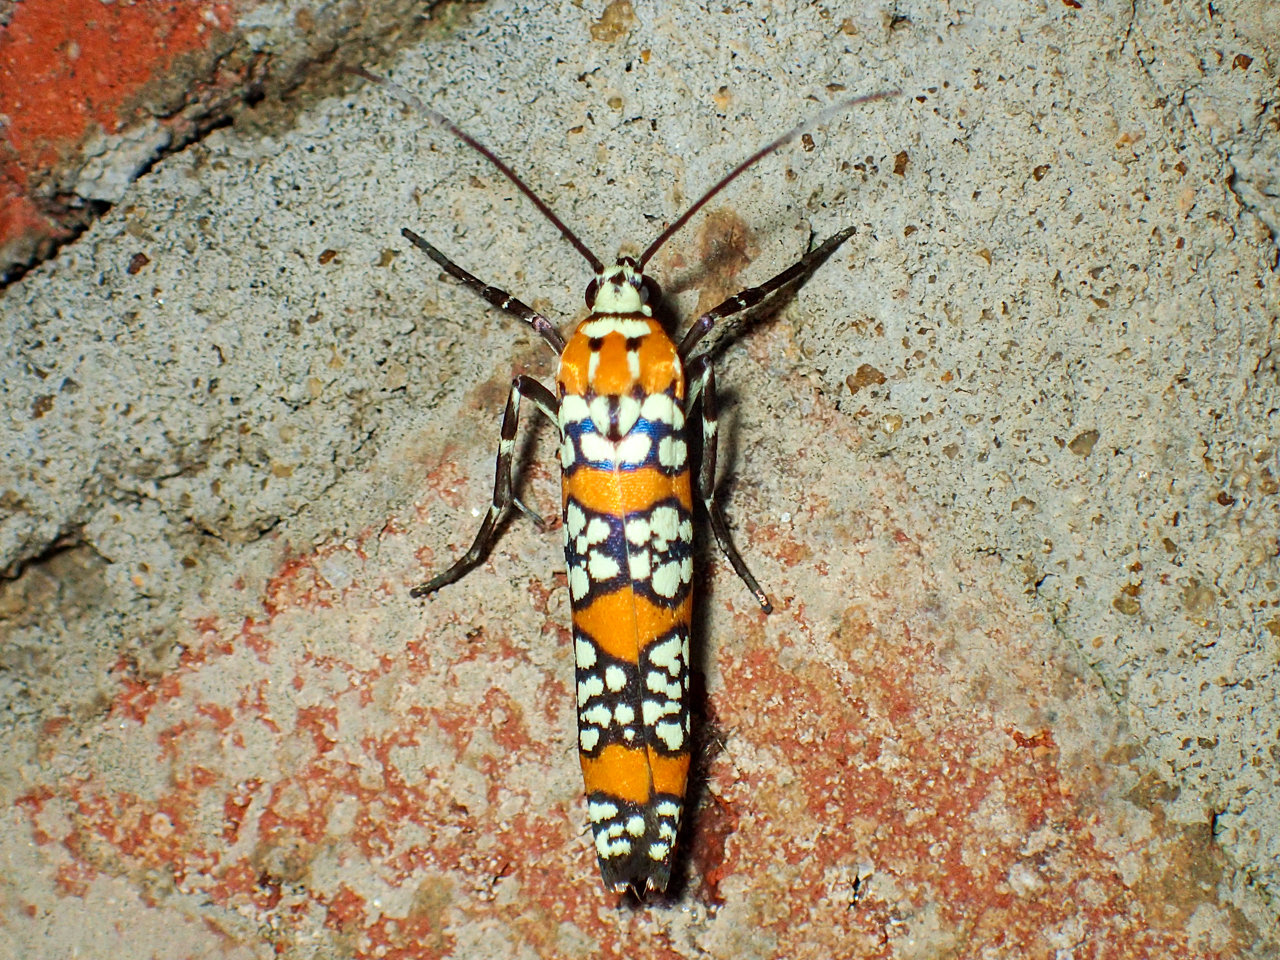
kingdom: Animalia
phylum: Arthropoda
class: Insecta
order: Lepidoptera
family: Attevidae
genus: Atteva
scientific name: Atteva punctella
